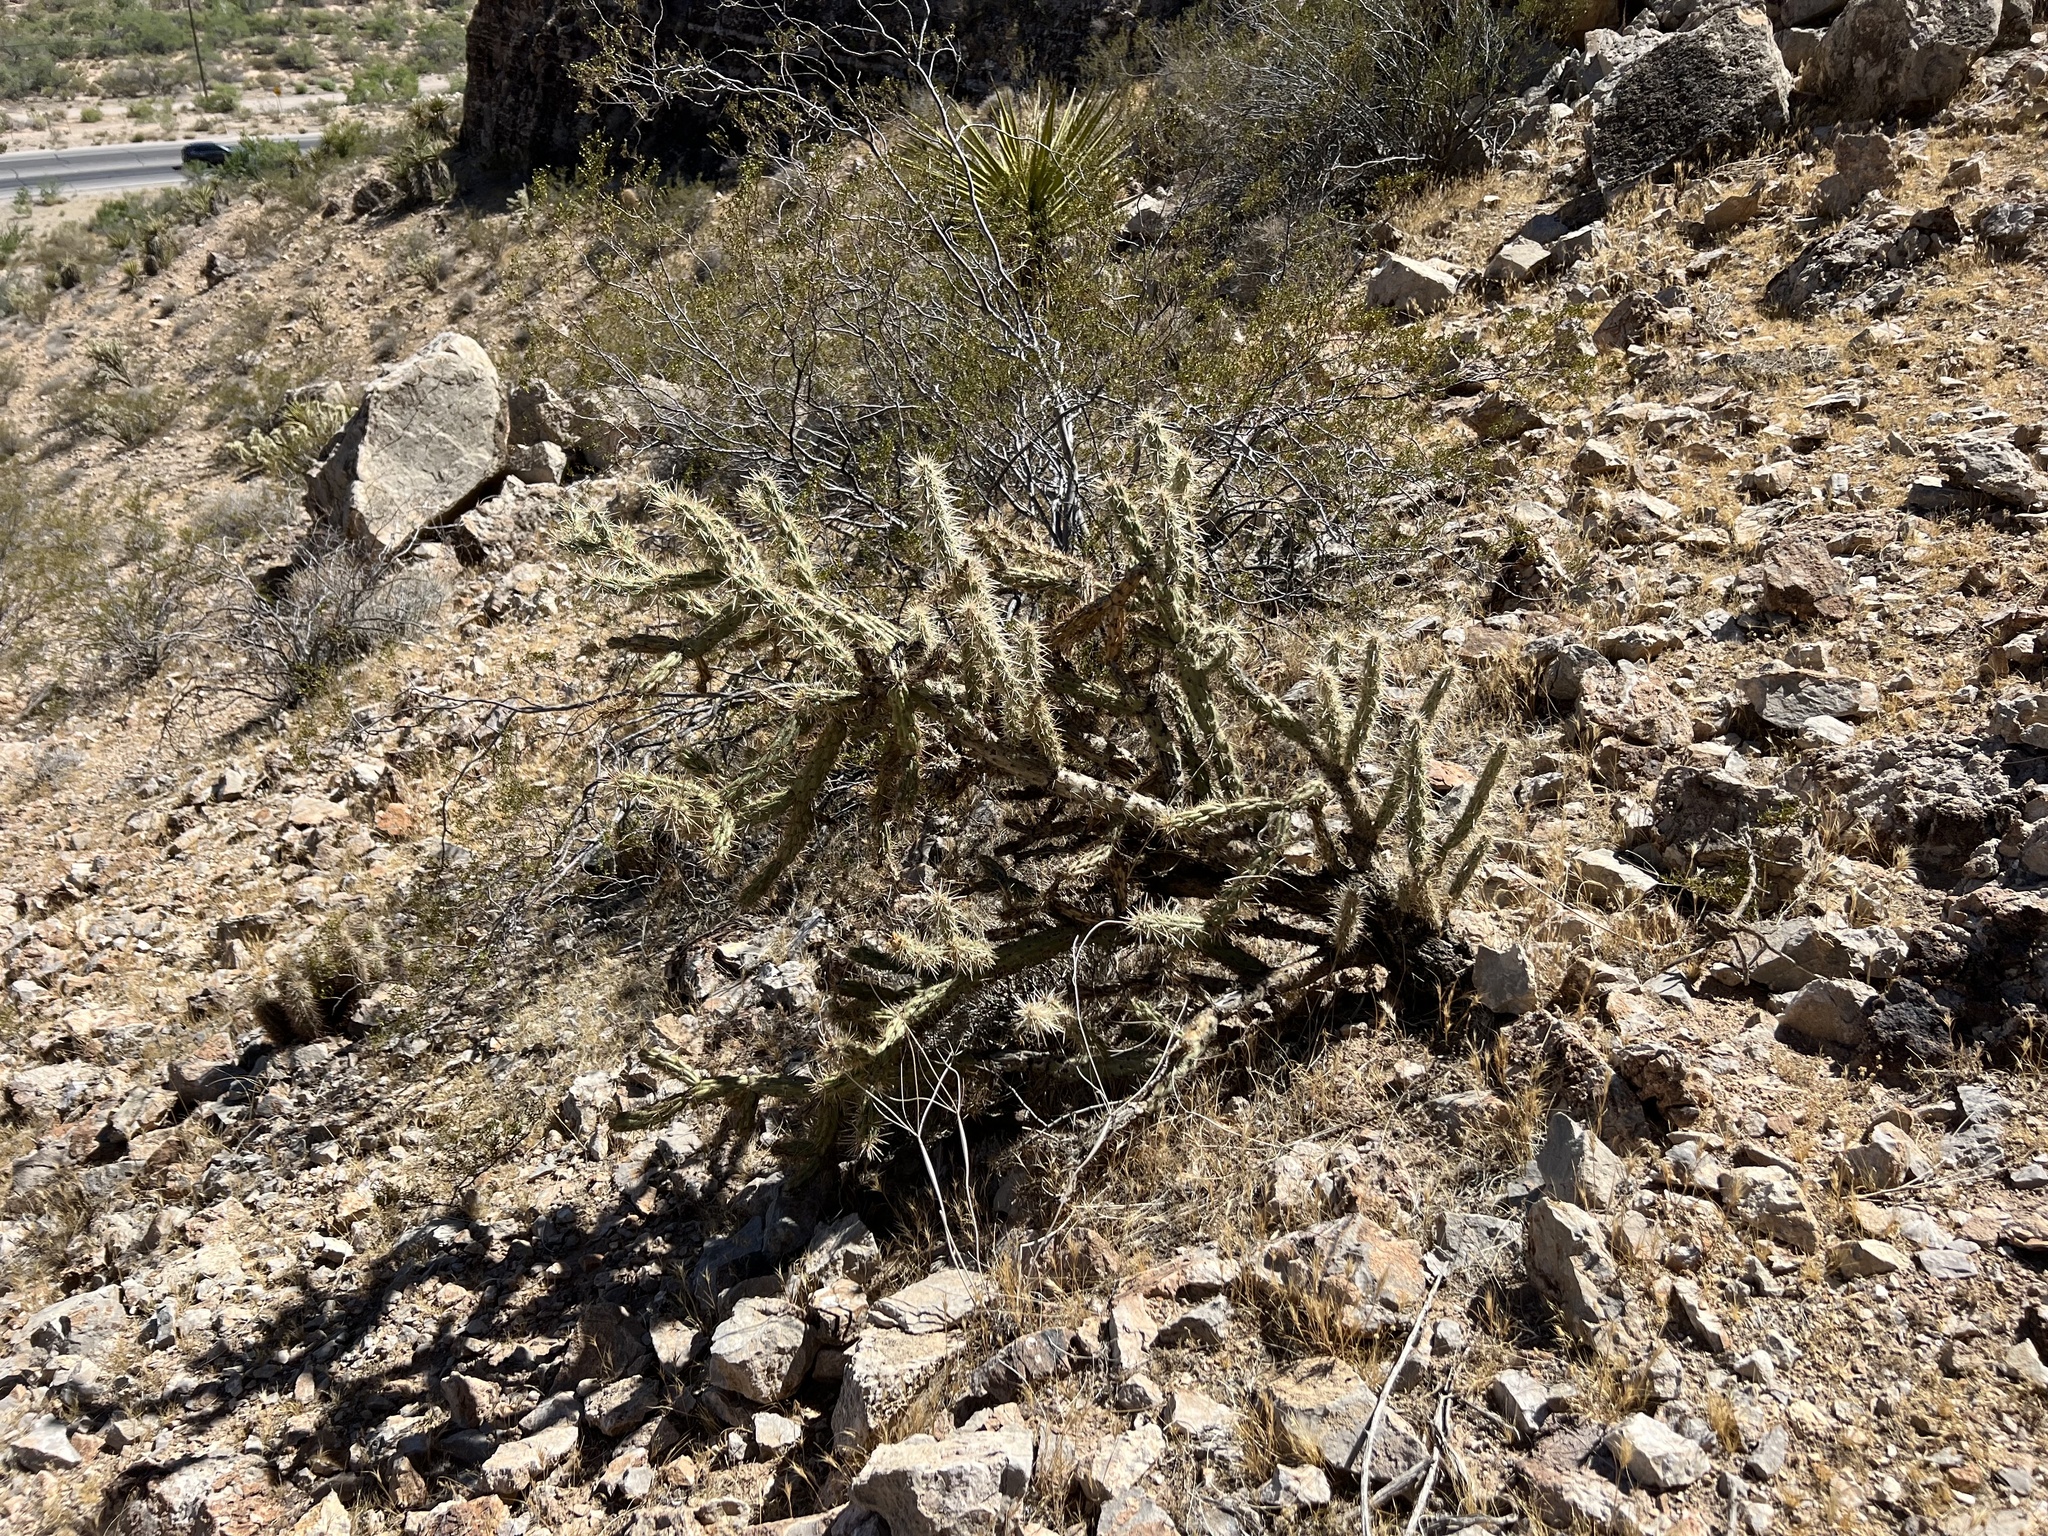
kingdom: Plantae
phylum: Tracheophyta
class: Magnoliopsida
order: Caryophyllales
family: Cactaceae
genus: Cylindropuntia
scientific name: Cylindropuntia acanthocarpa
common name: Buckhorn cholla
